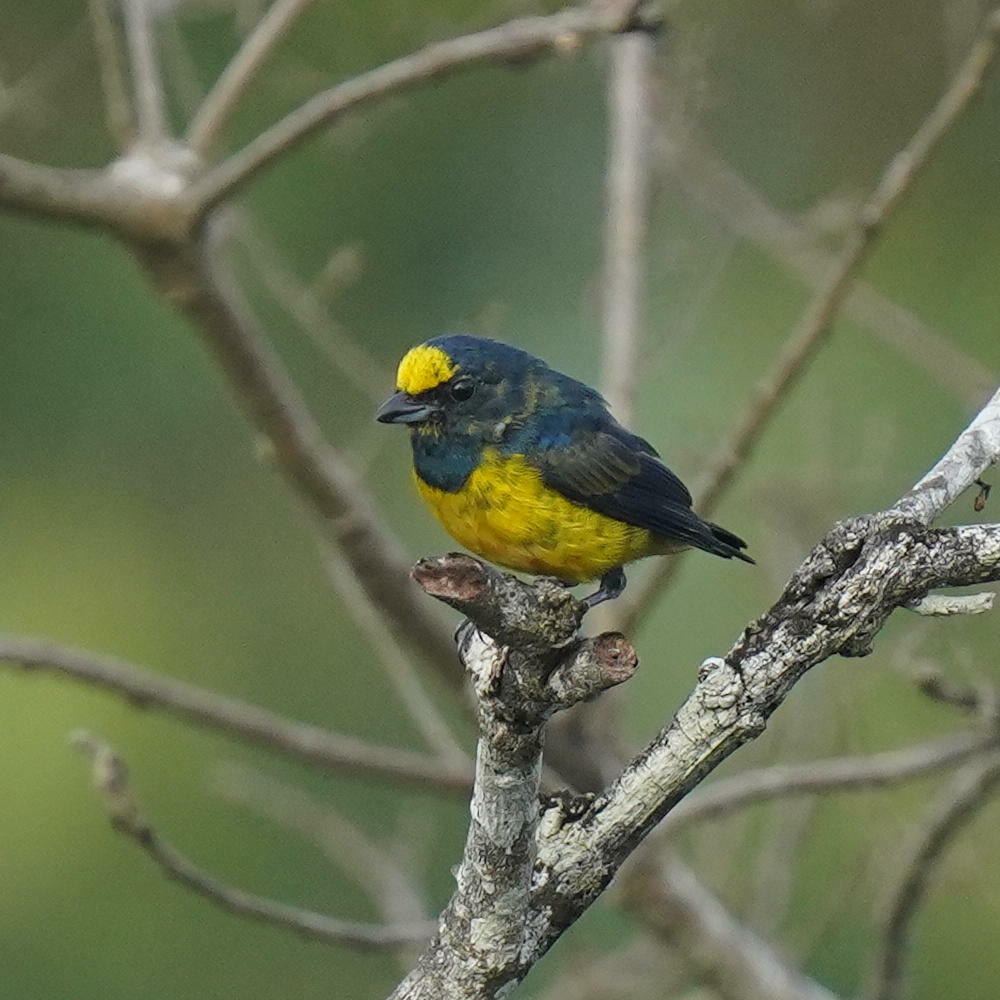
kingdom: Animalia
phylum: Chordata
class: Aves
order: Passeriformes
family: Fringillidae
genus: Euphonia
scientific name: Euphonia fulvicrissa
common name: Fulvous-vented euphonia
